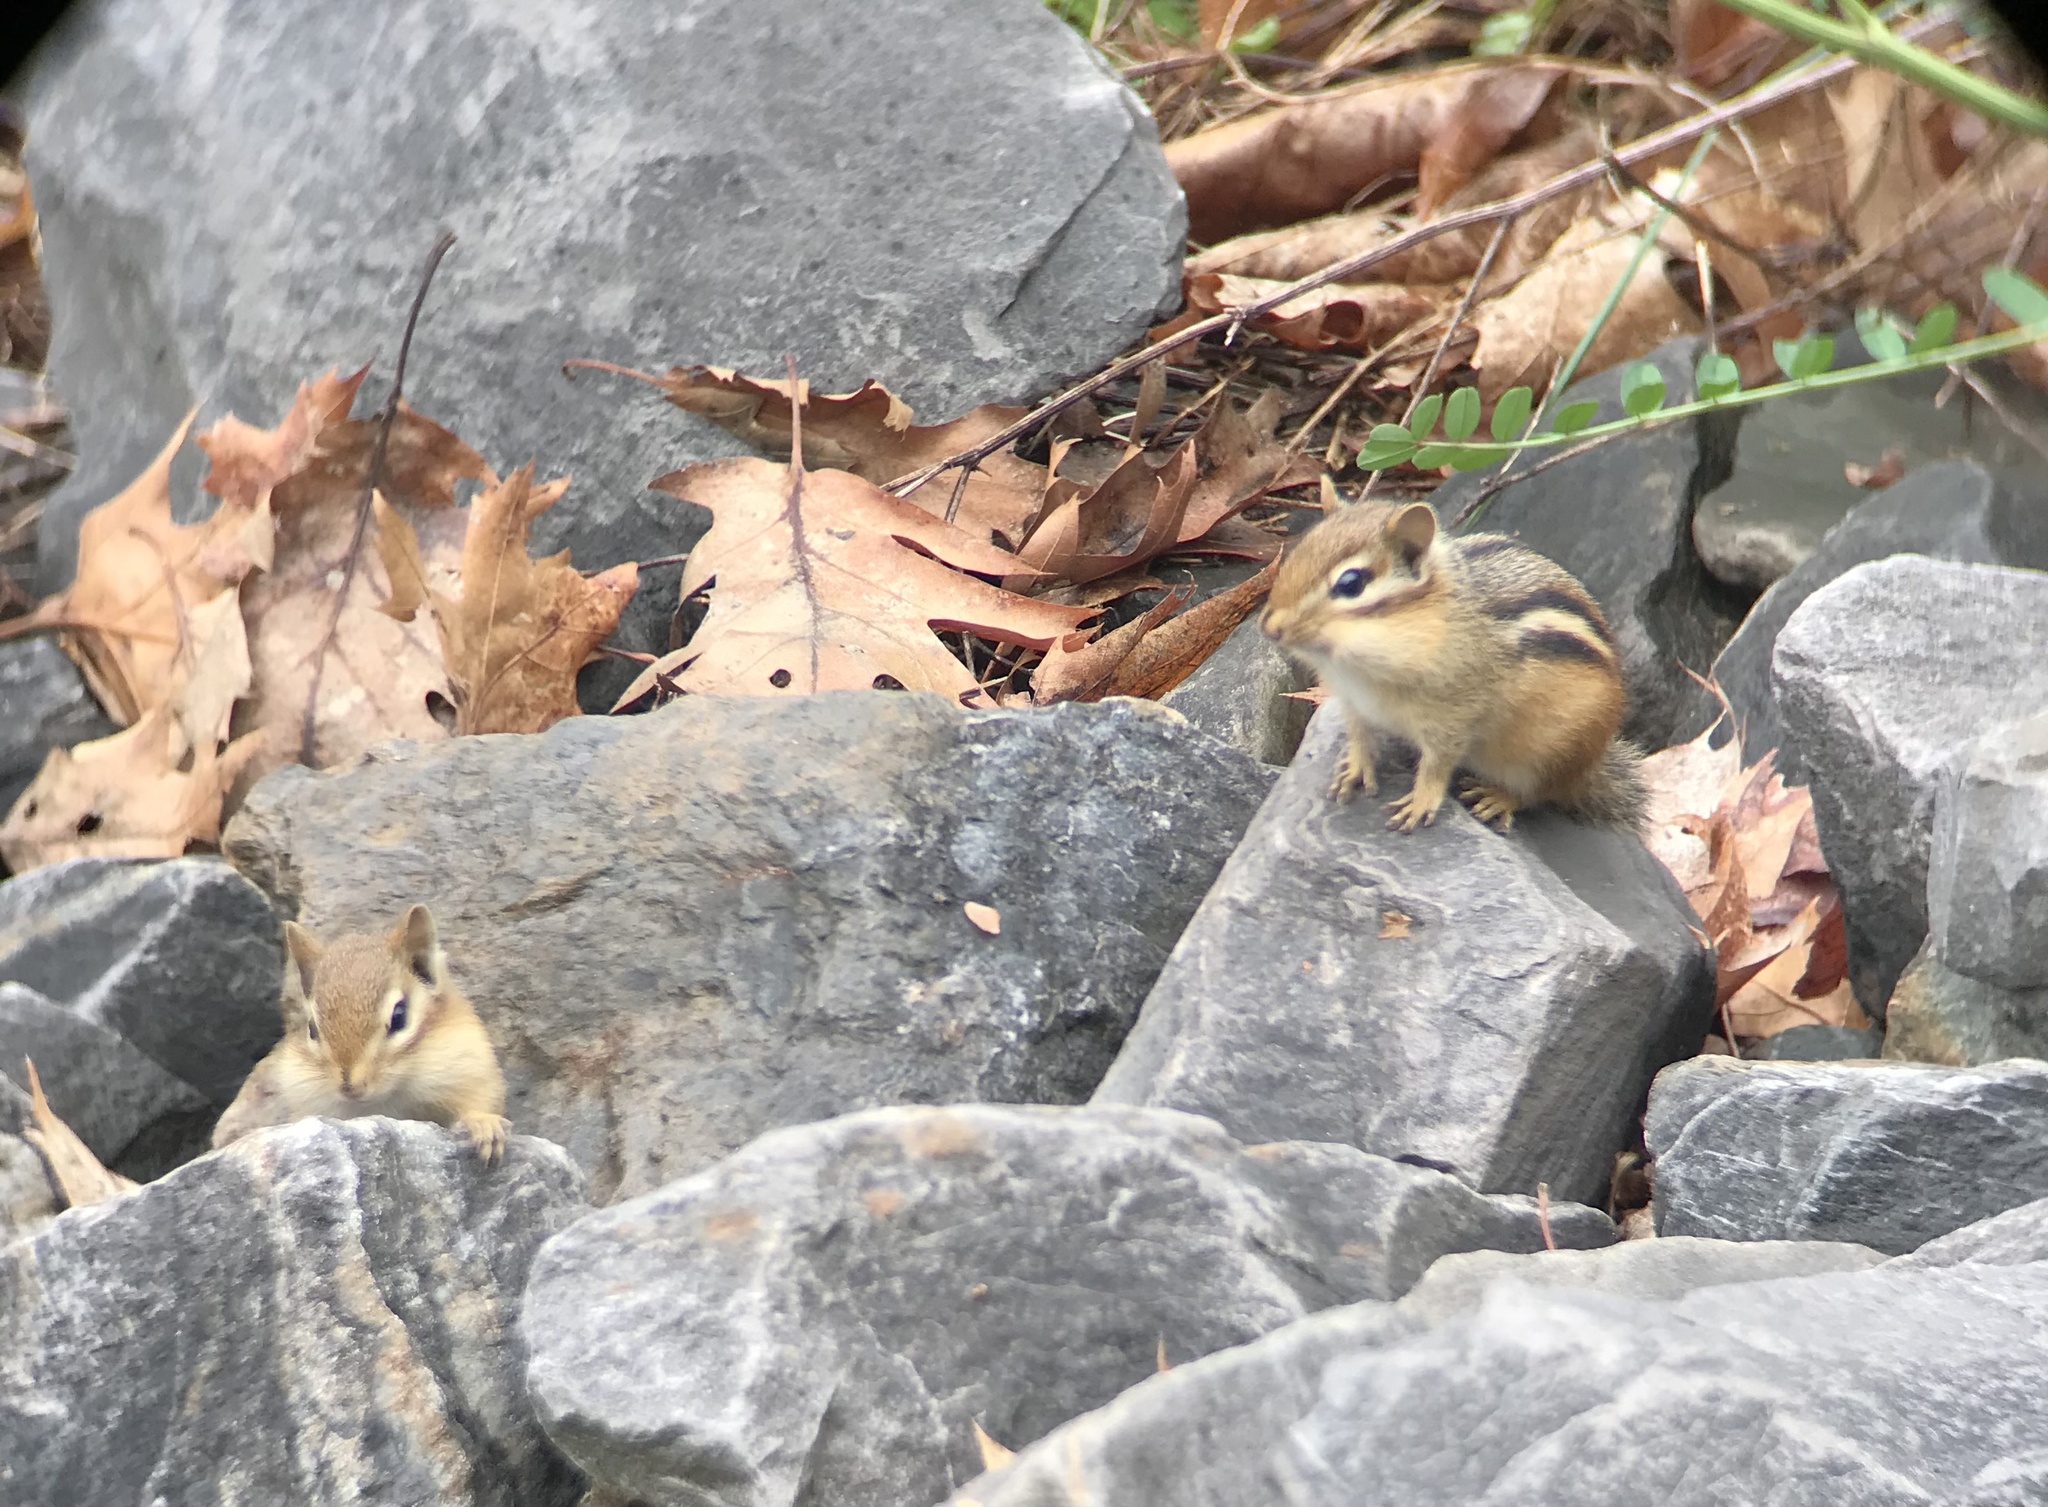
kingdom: Animalia
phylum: Chordata
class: Mammalia
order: Rodentia
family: Sciuridae
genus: Tamias
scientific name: Tamias striatus
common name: Eastern chipmunk
